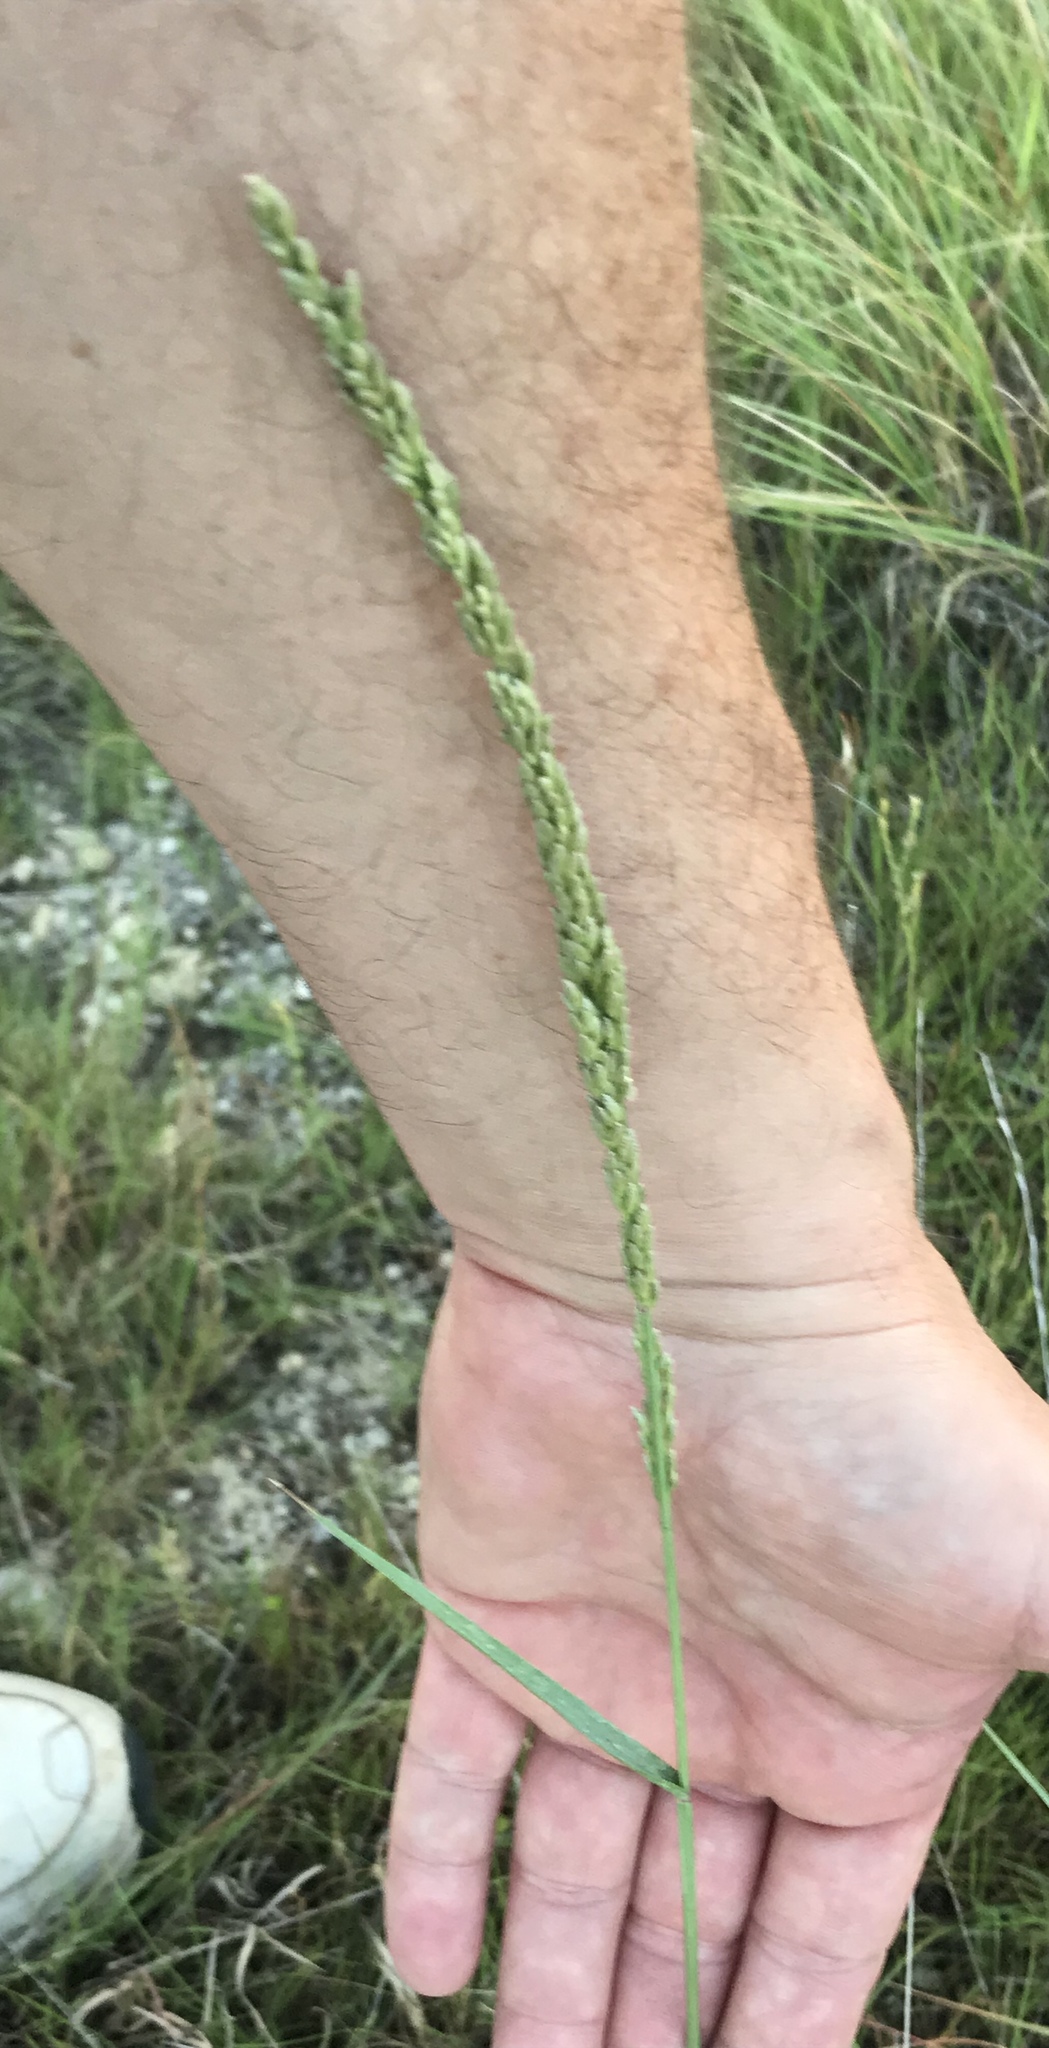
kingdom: Plantae
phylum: Tracheophyta
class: Liliopsida
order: Poales
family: Poaceae
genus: Tridens
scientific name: Tridens albescens
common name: White tridens
